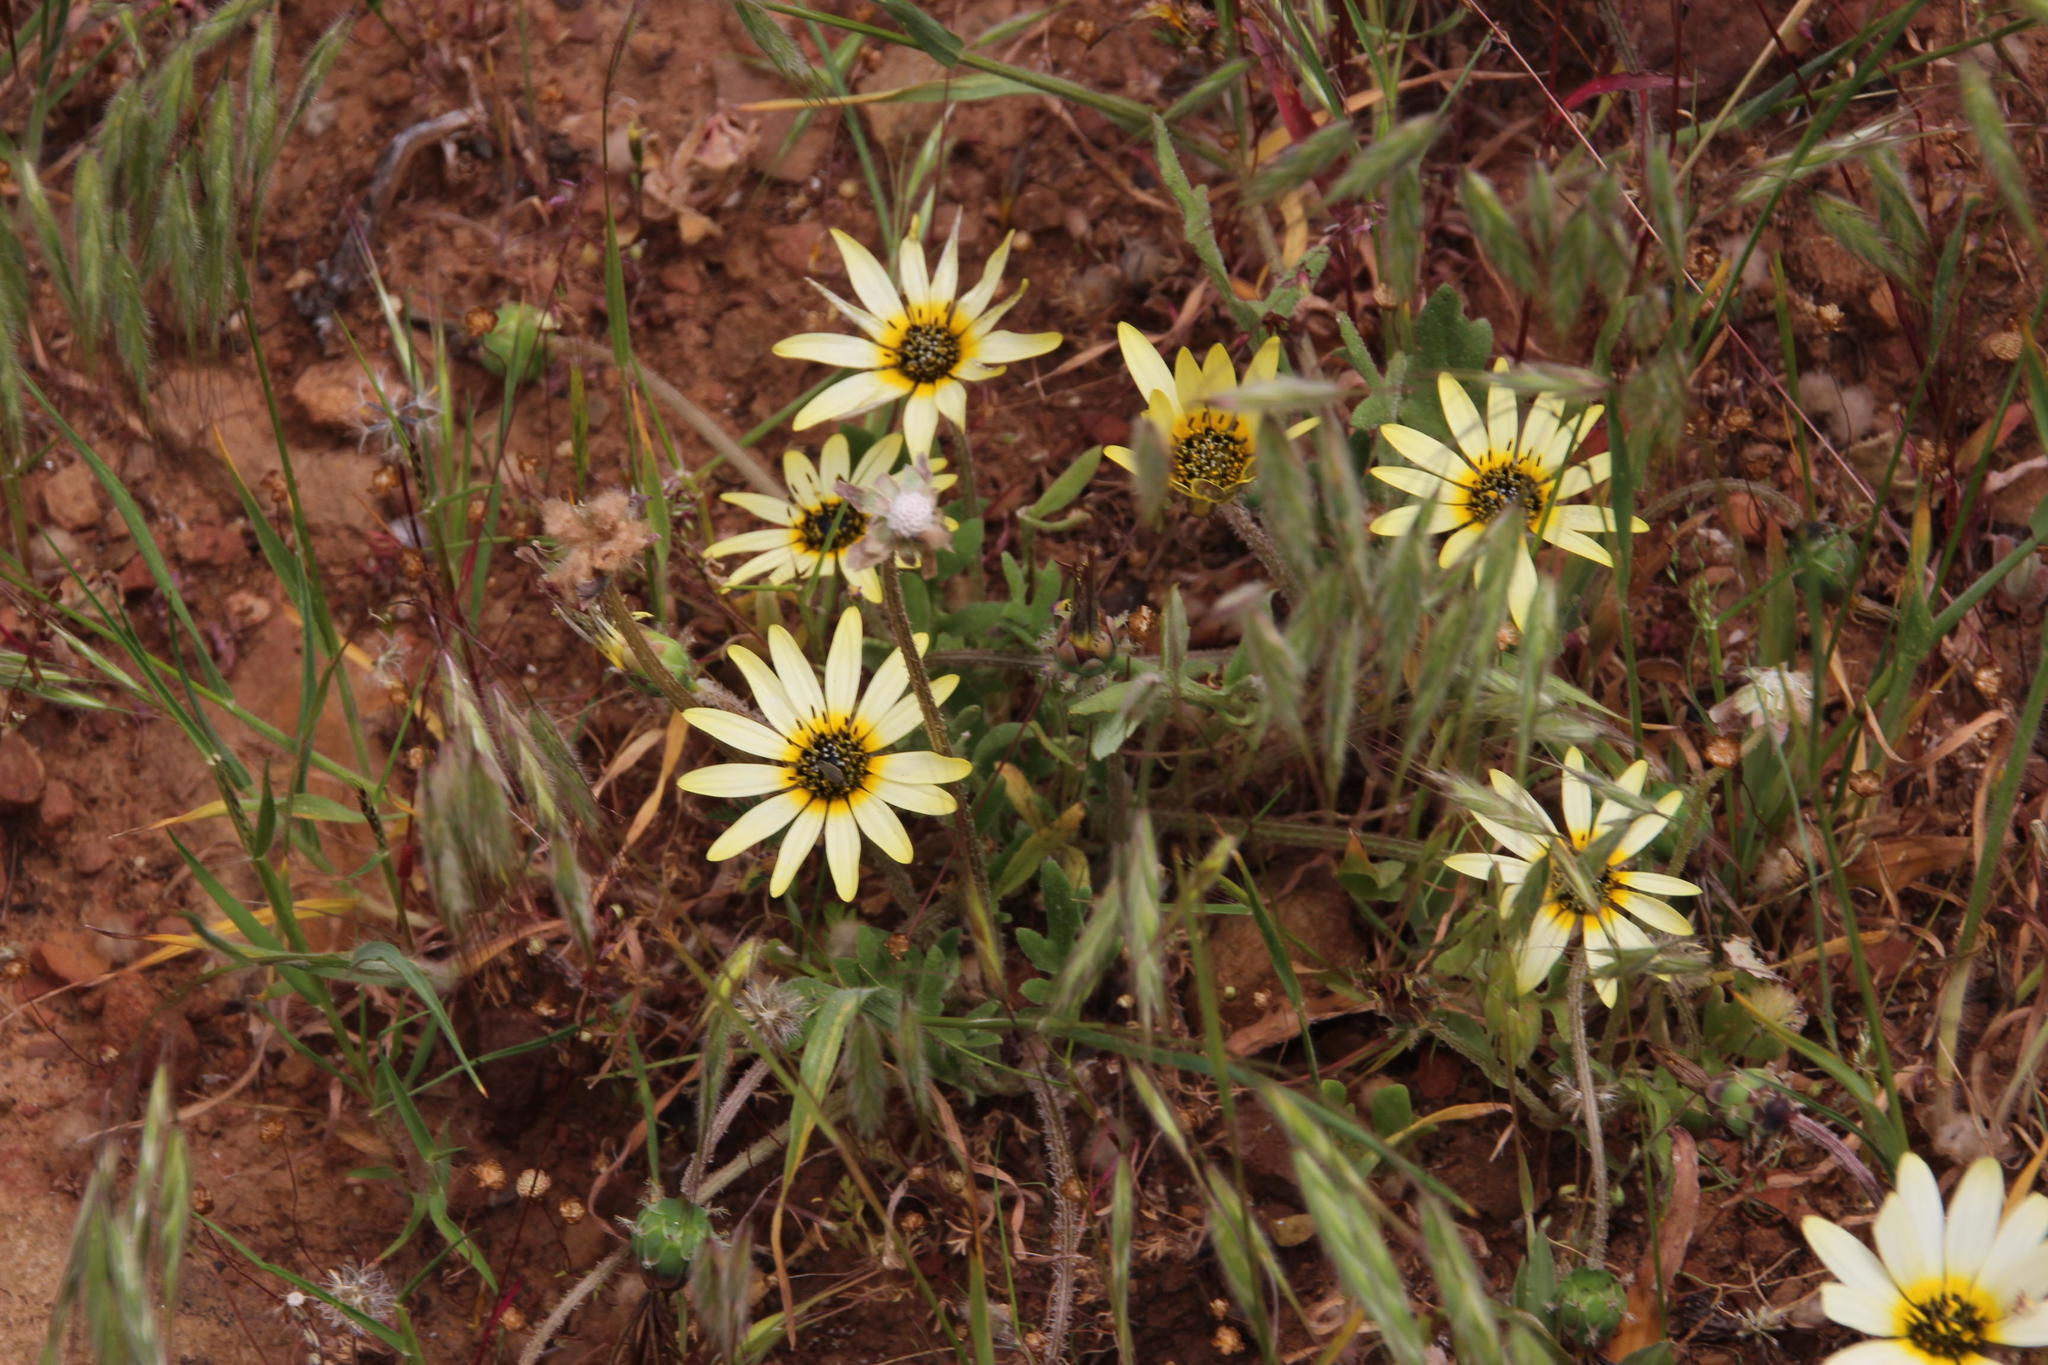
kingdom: Plantae
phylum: Tracheophyta
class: Magnoliopsida
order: Asterales
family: Asteraceae
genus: Arctotheca
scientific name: Arctotheca calendula
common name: Capeweed
